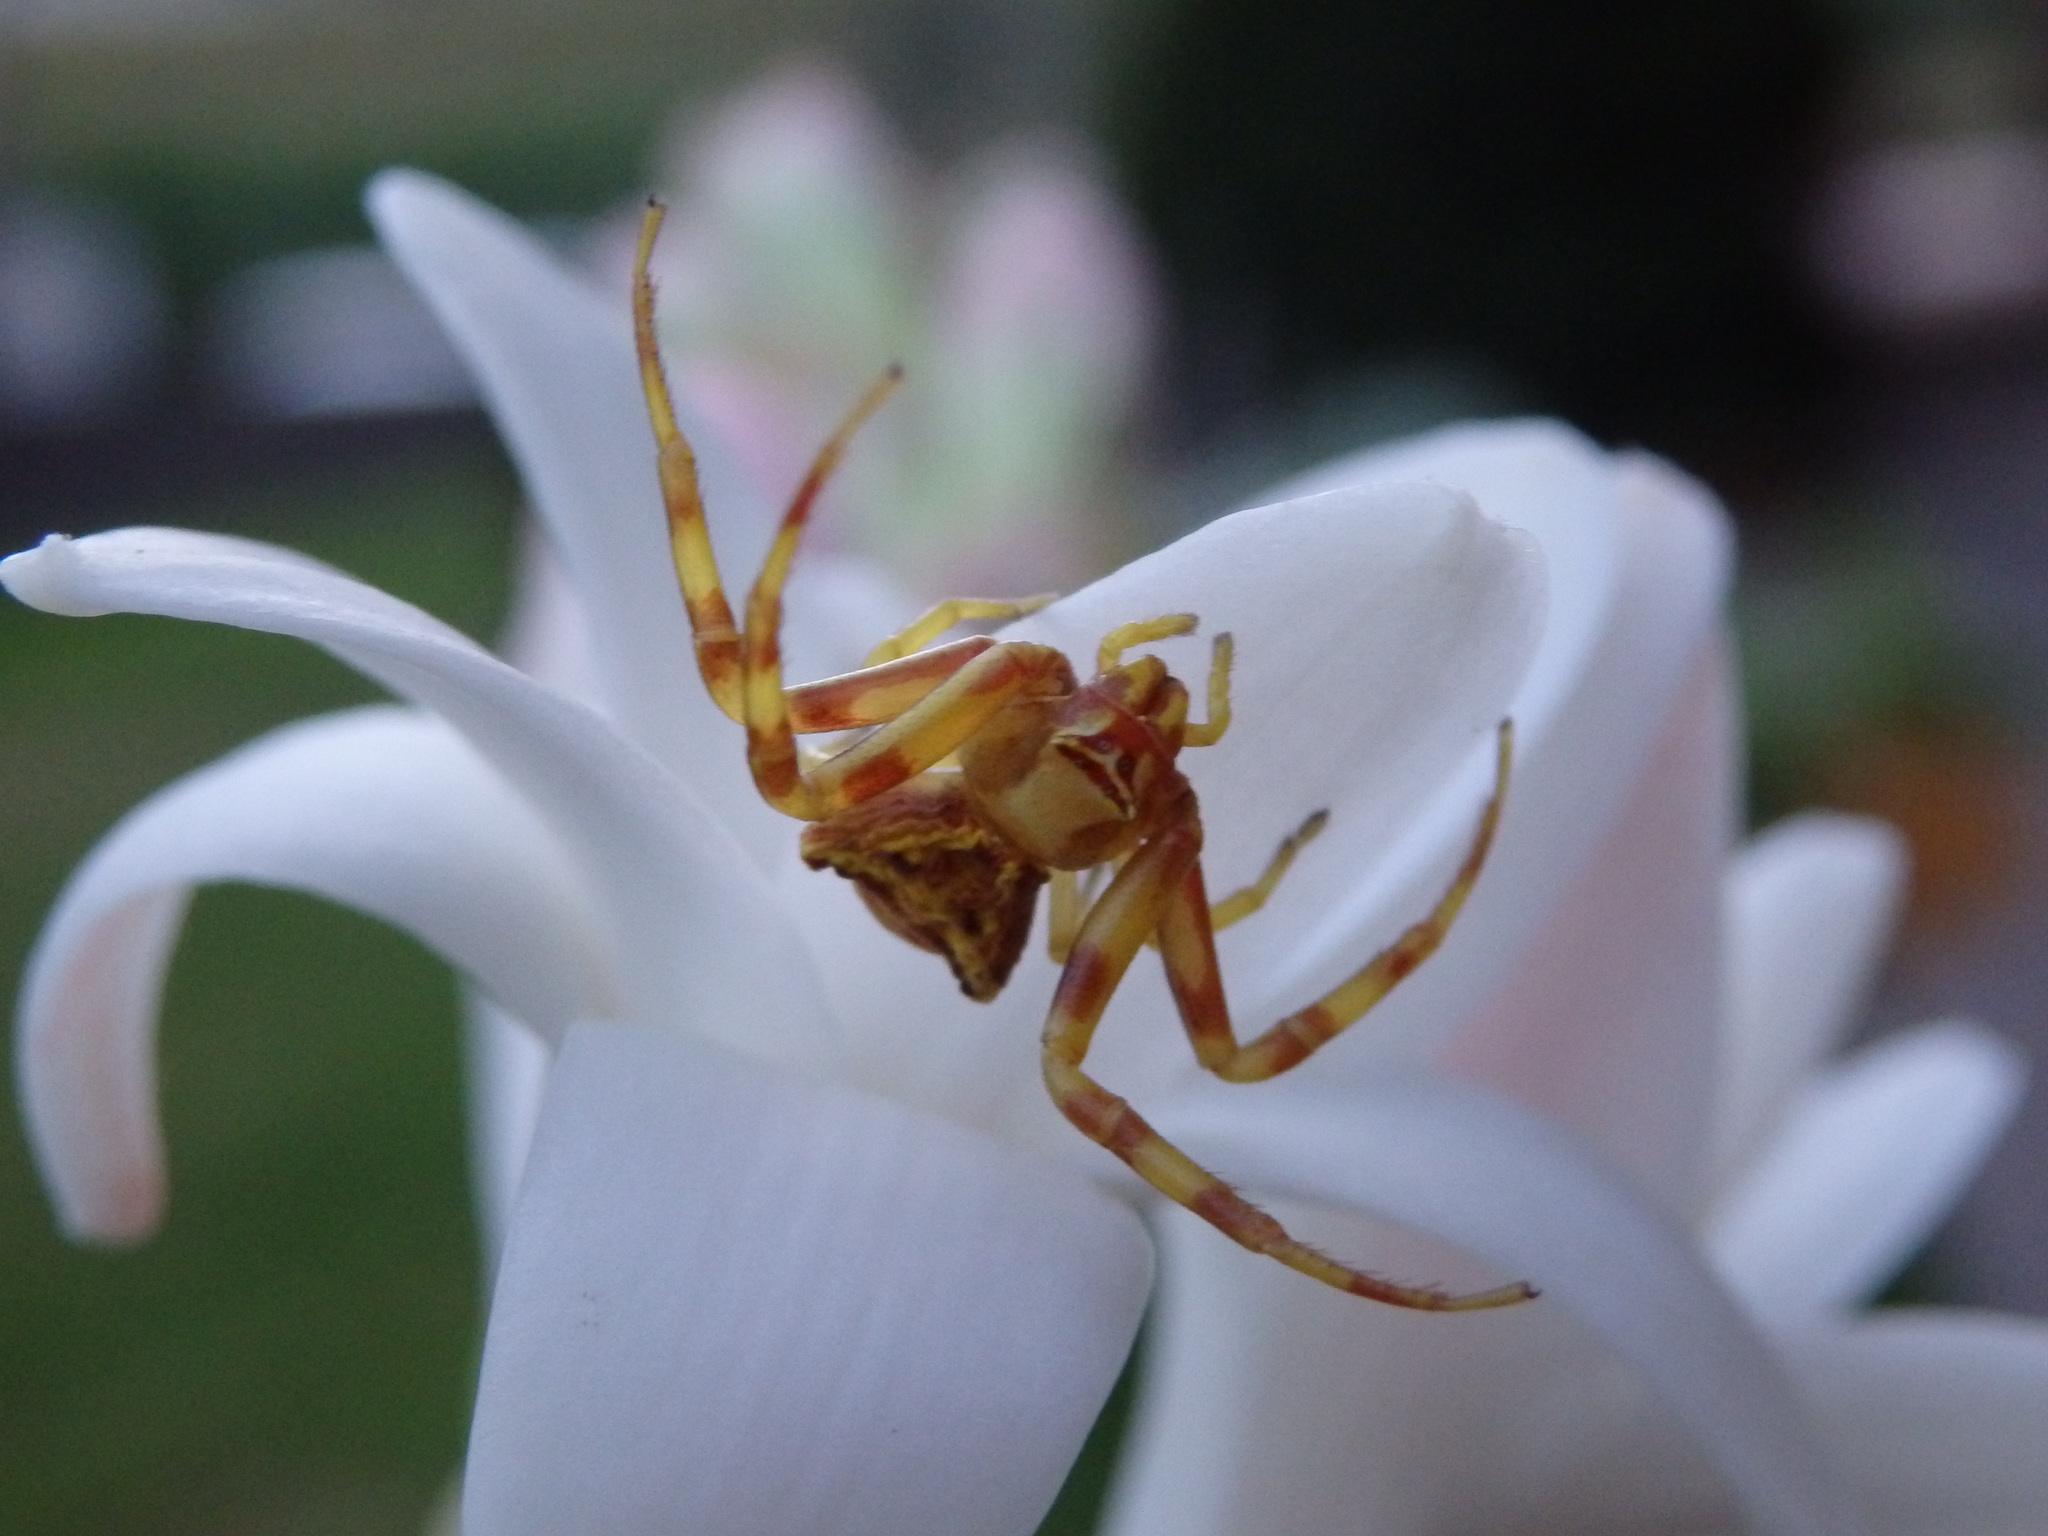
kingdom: Animalia
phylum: Arthropoda
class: Arachnida
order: Araneae
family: Thomisidae
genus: Thomisus
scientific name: Thomisus onustus
